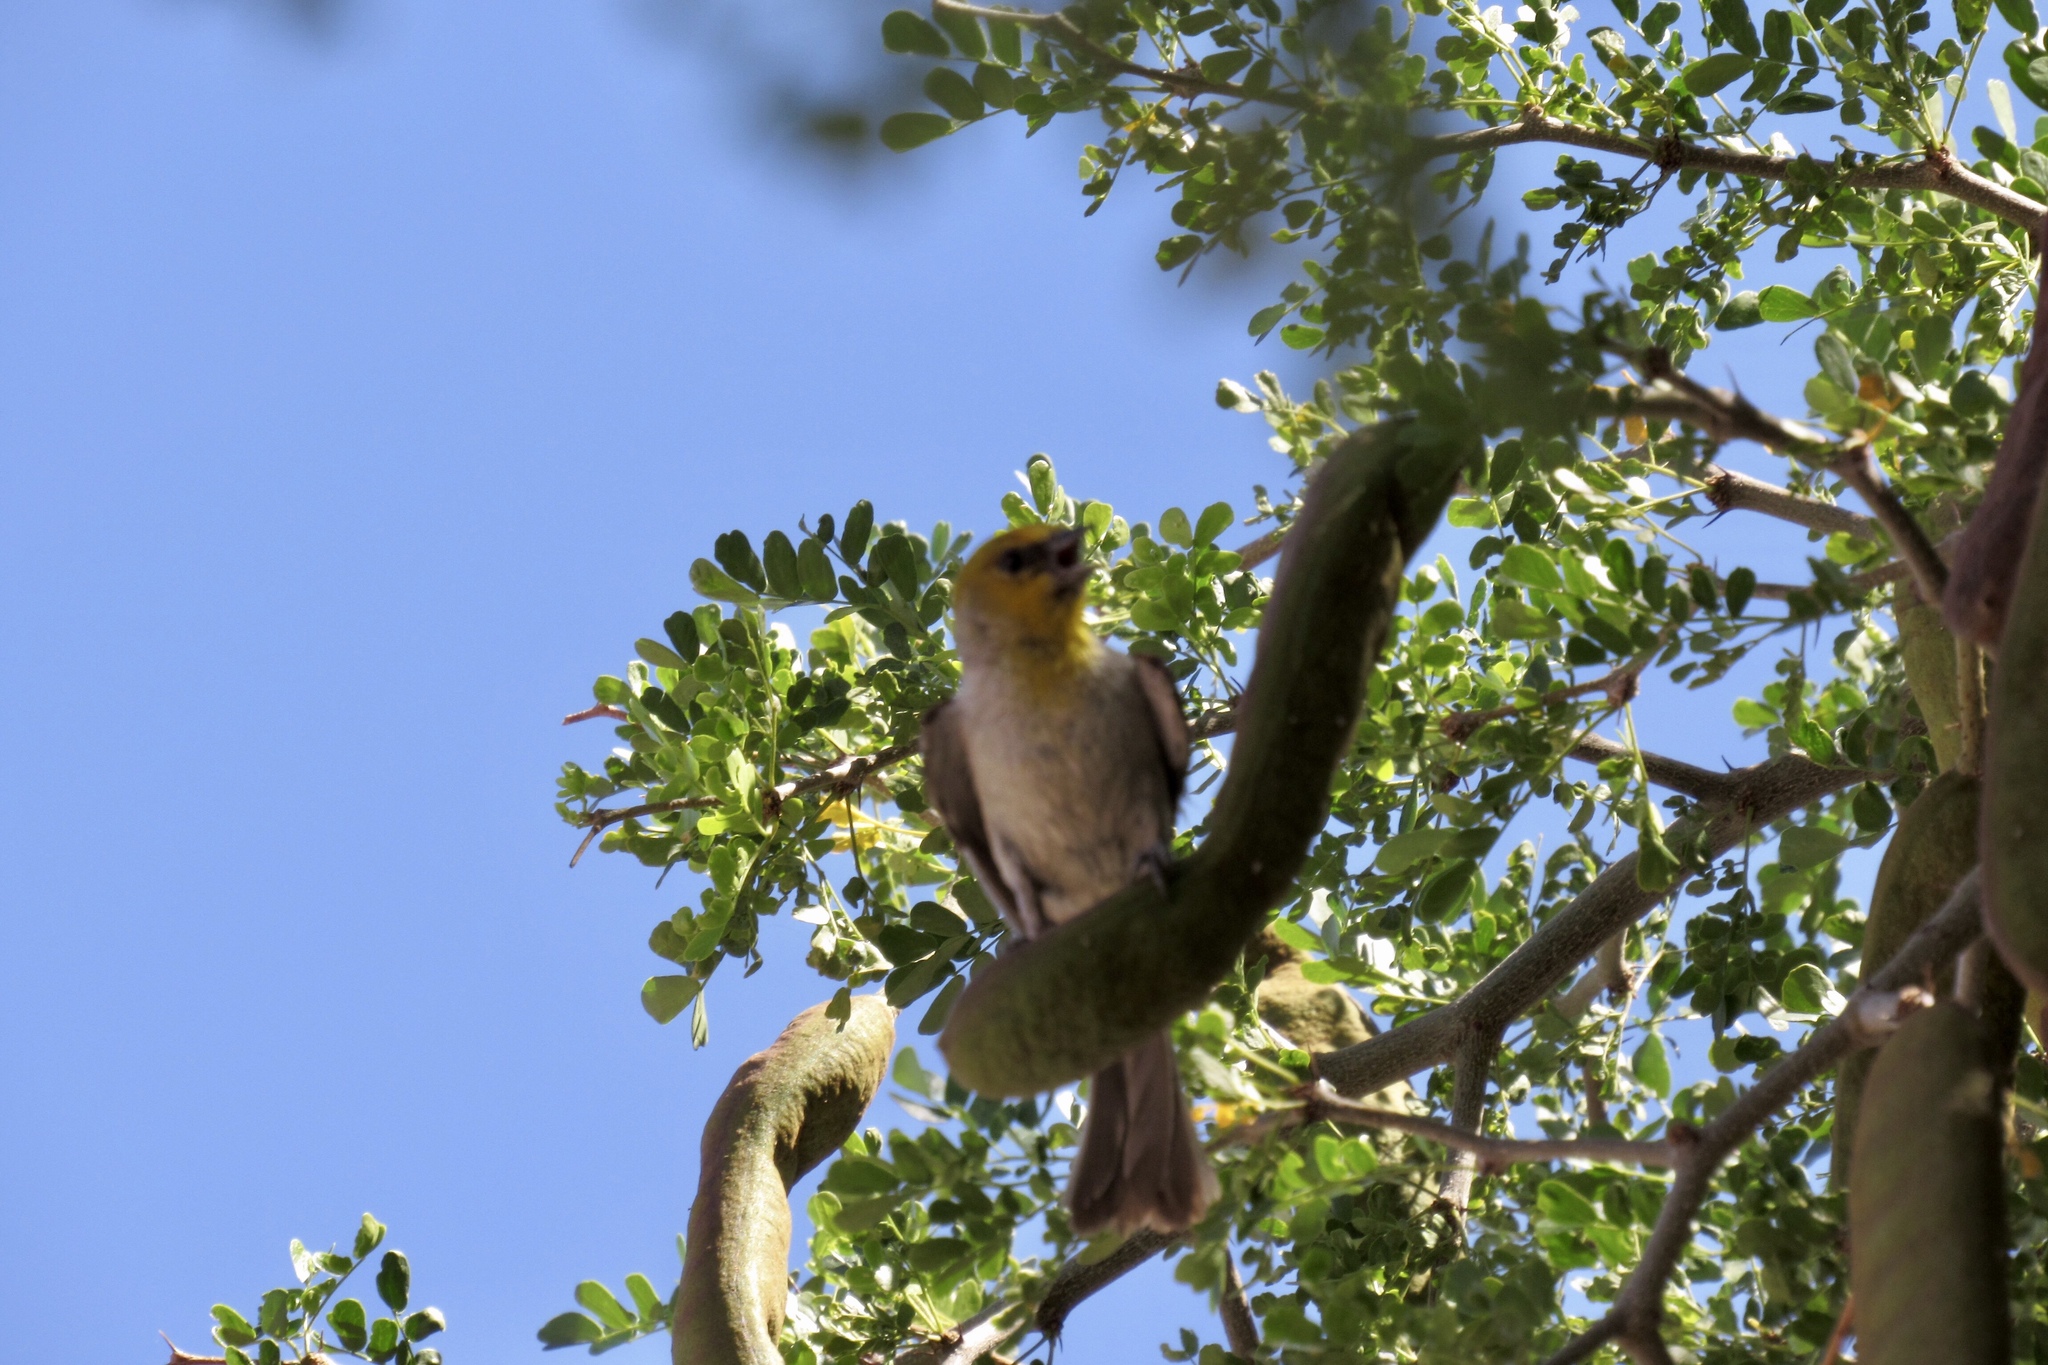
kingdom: Animalia
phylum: Chordata
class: Aves
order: Passeriformes
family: Remizidae
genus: Auriparus
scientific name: Auriparus flaviceps
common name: Verdin
